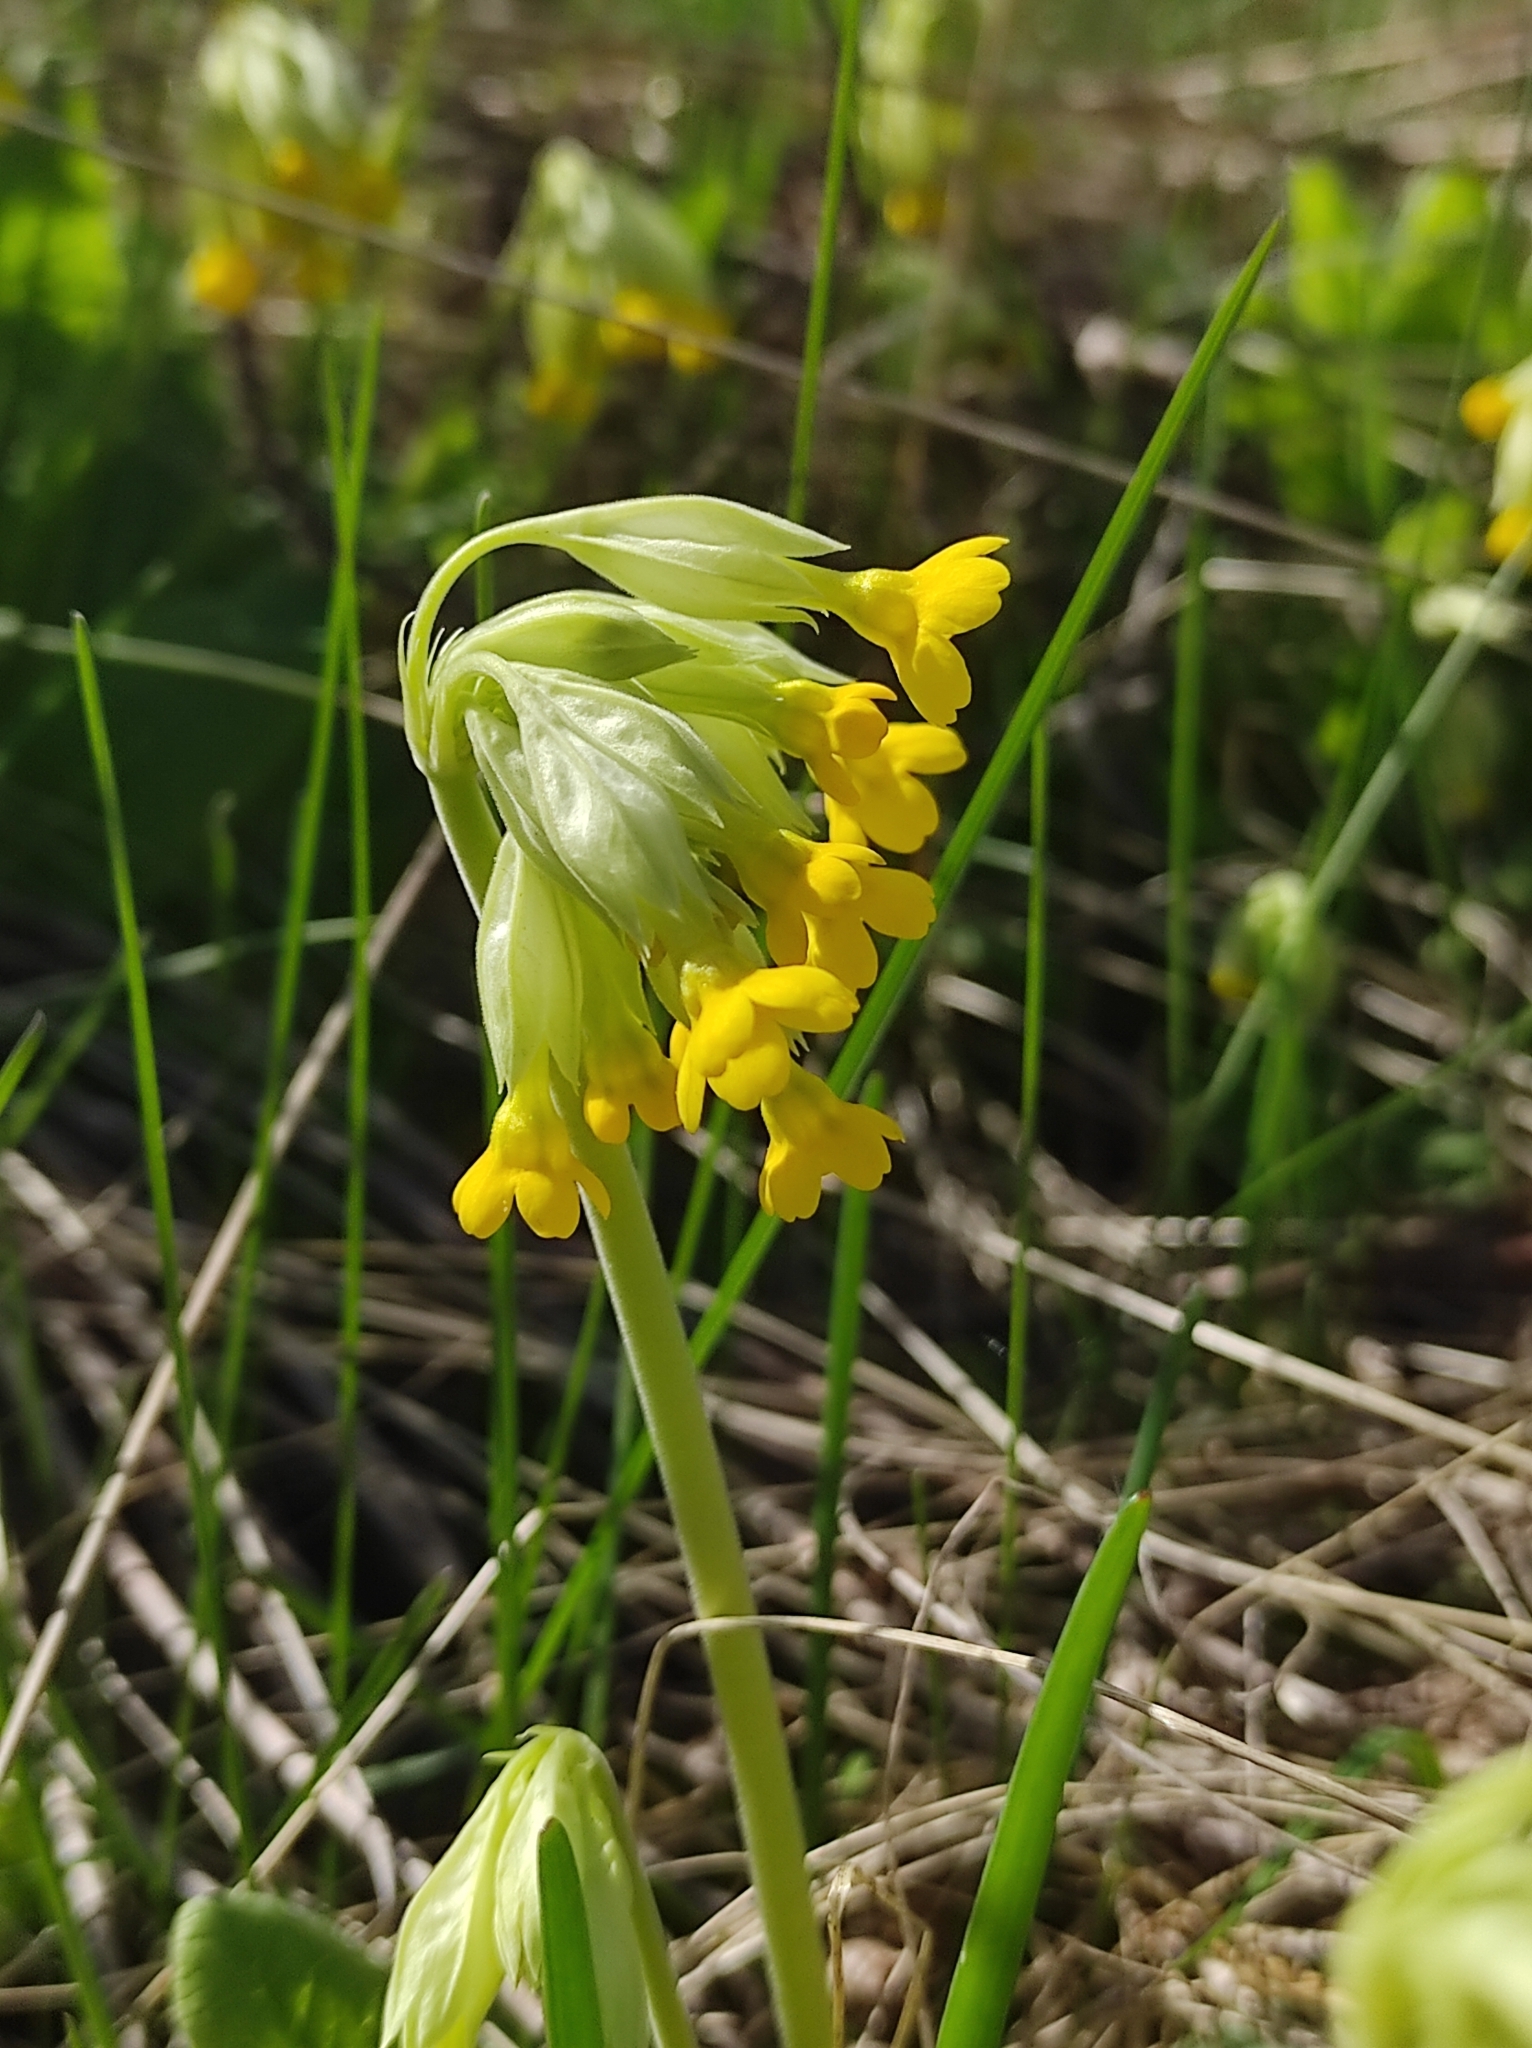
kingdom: Plantae
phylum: Tracheophyta
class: Magnoliopsida
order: Ericales
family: Primulaceae
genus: Primula
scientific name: Primula veris
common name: Cowslip
